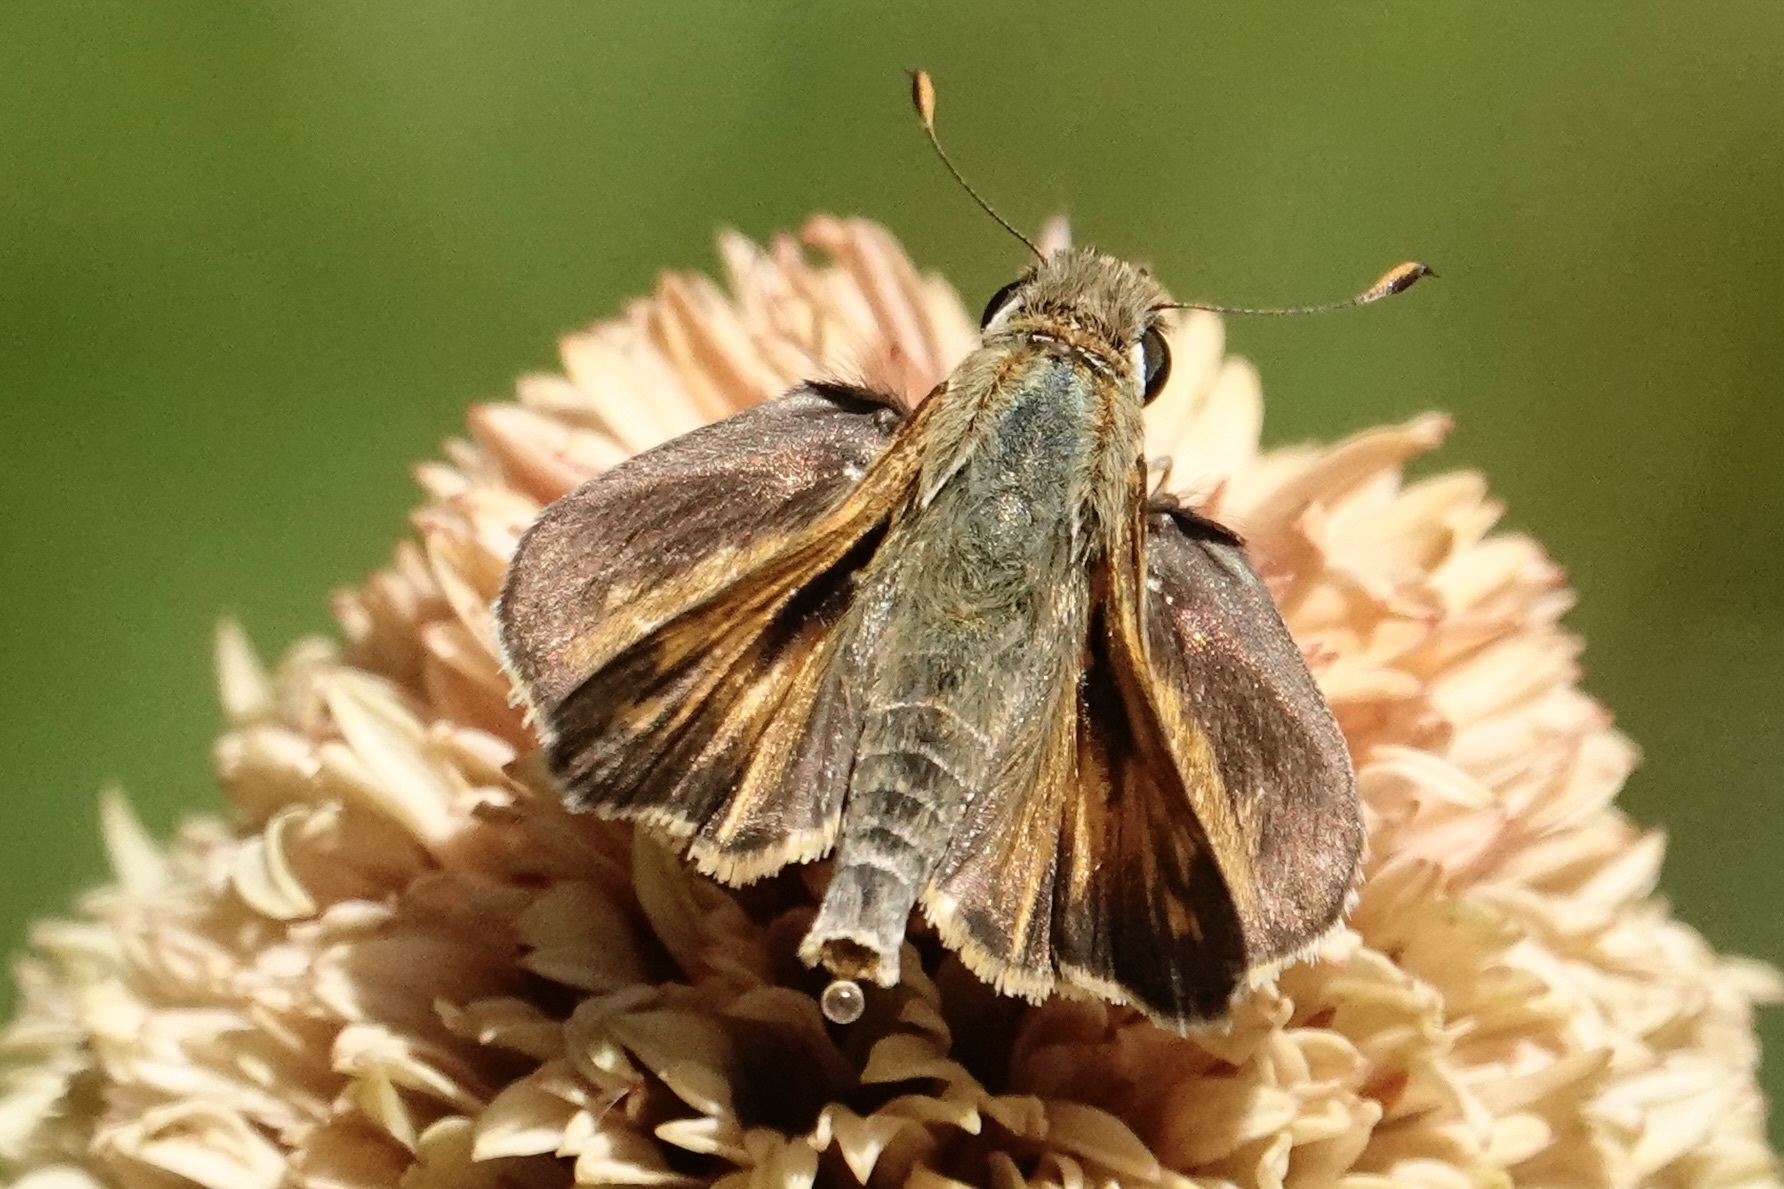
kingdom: Animalia
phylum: Arthropoda
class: Insecta
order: Lepidoptera
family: Hesperiidae
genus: Atalopedes
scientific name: Atalopedes
